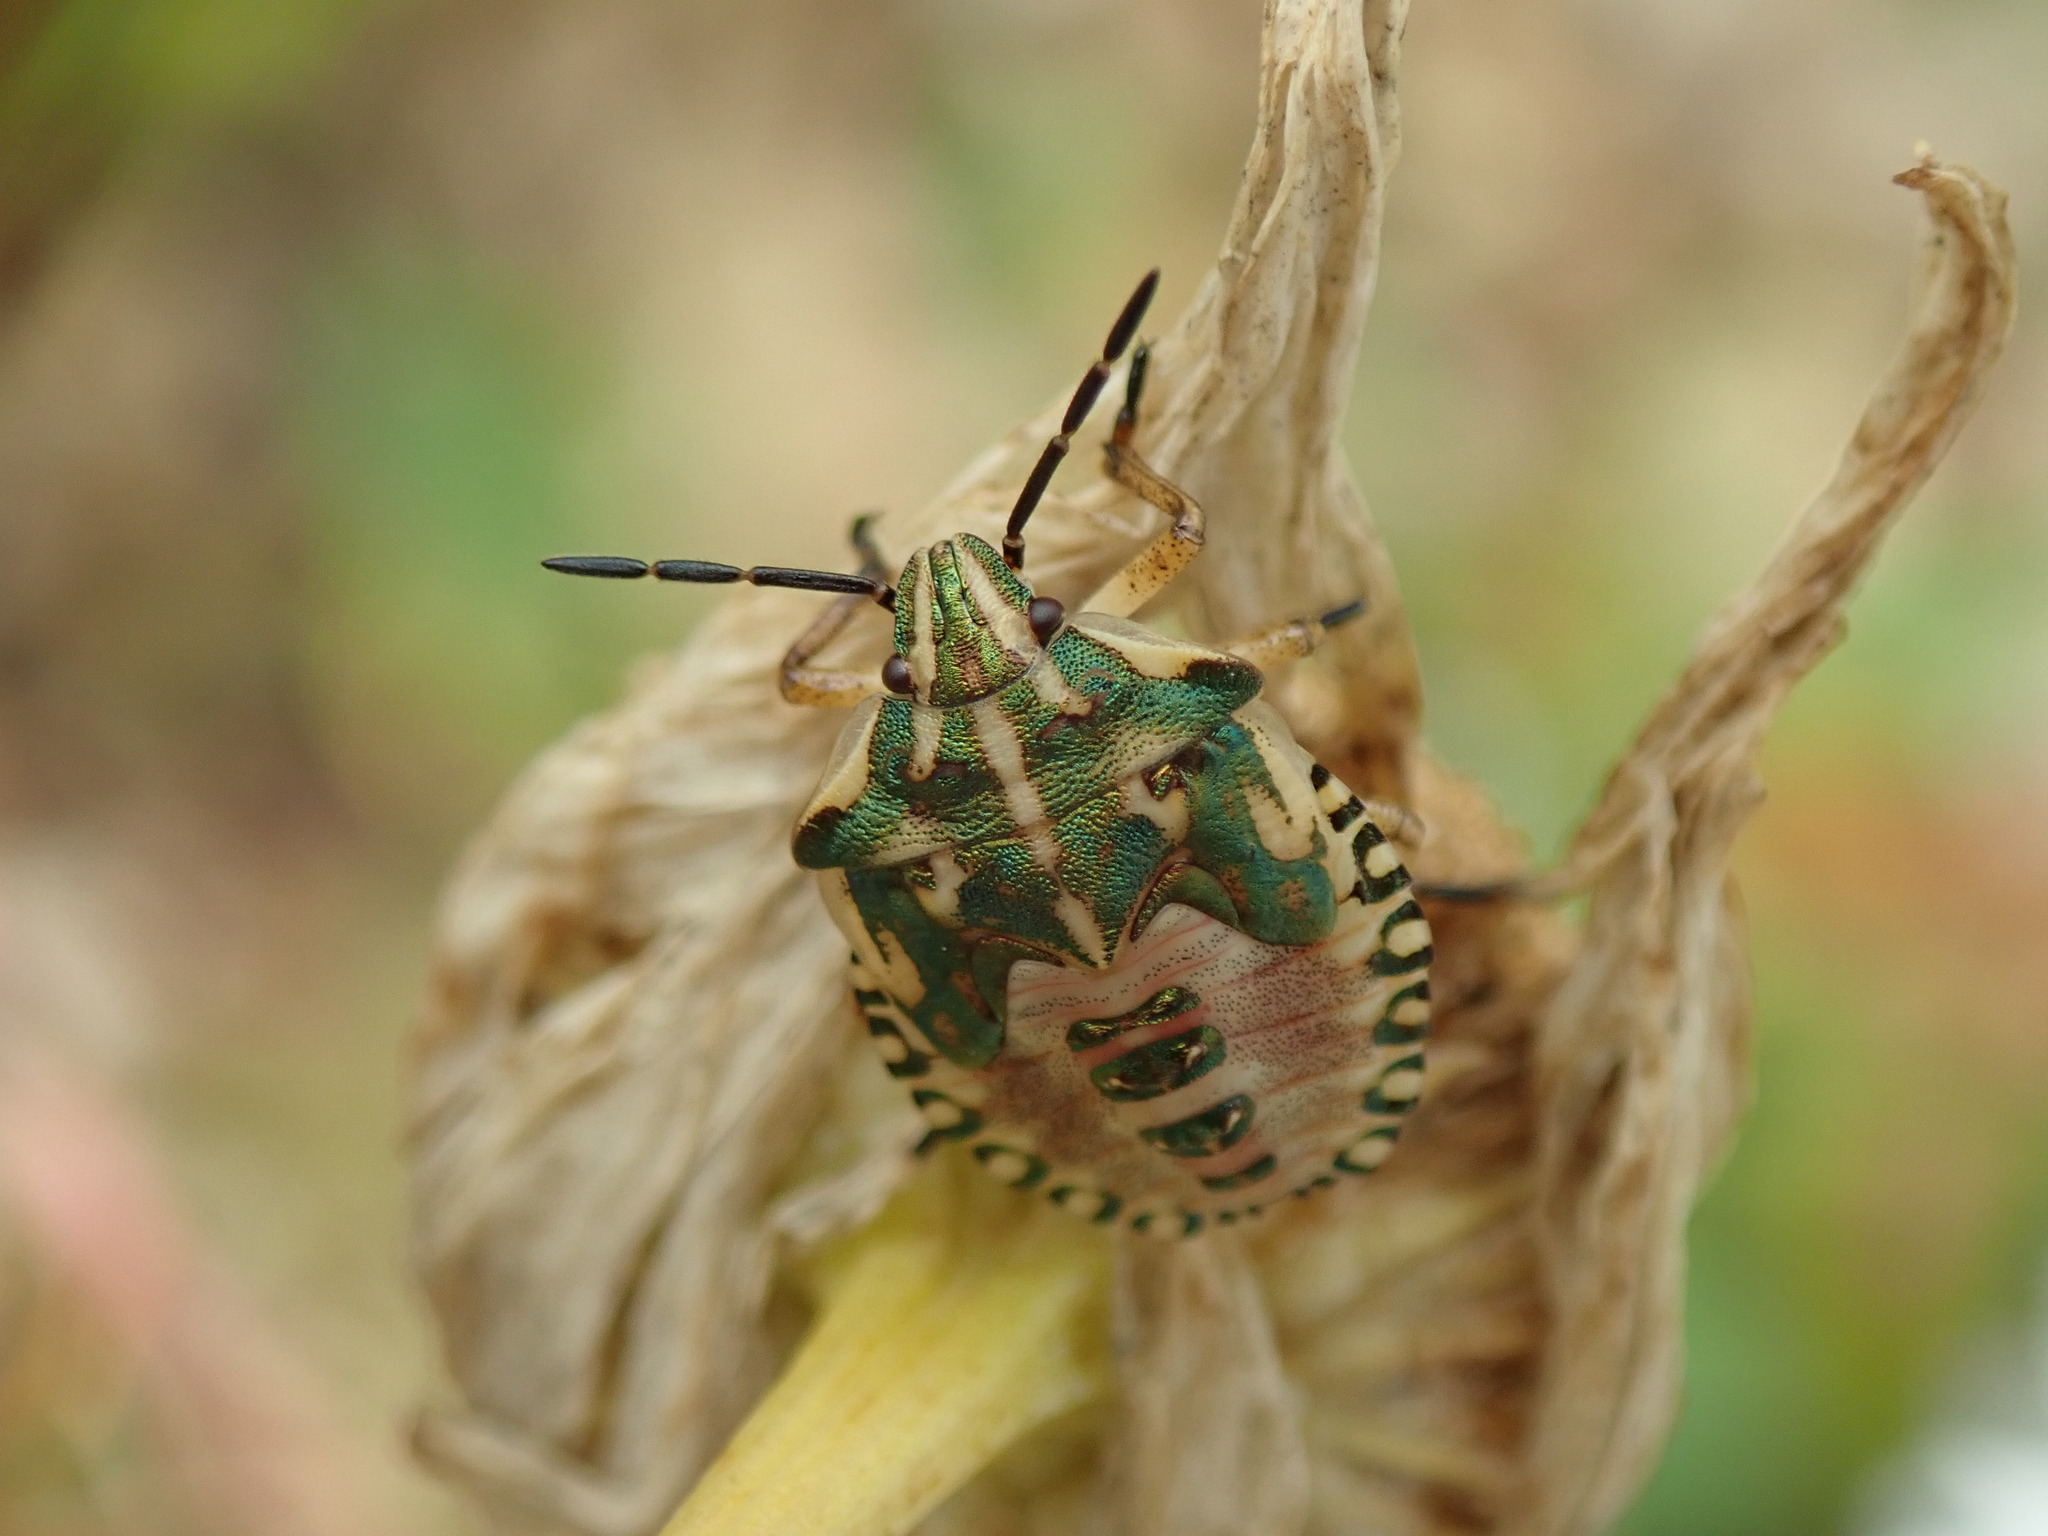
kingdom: Animalia
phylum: Arthropoda
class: Insecta
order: Hemiptera
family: Pentatomidae
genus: Carpocoris
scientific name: Carpocoris fuscispinus
